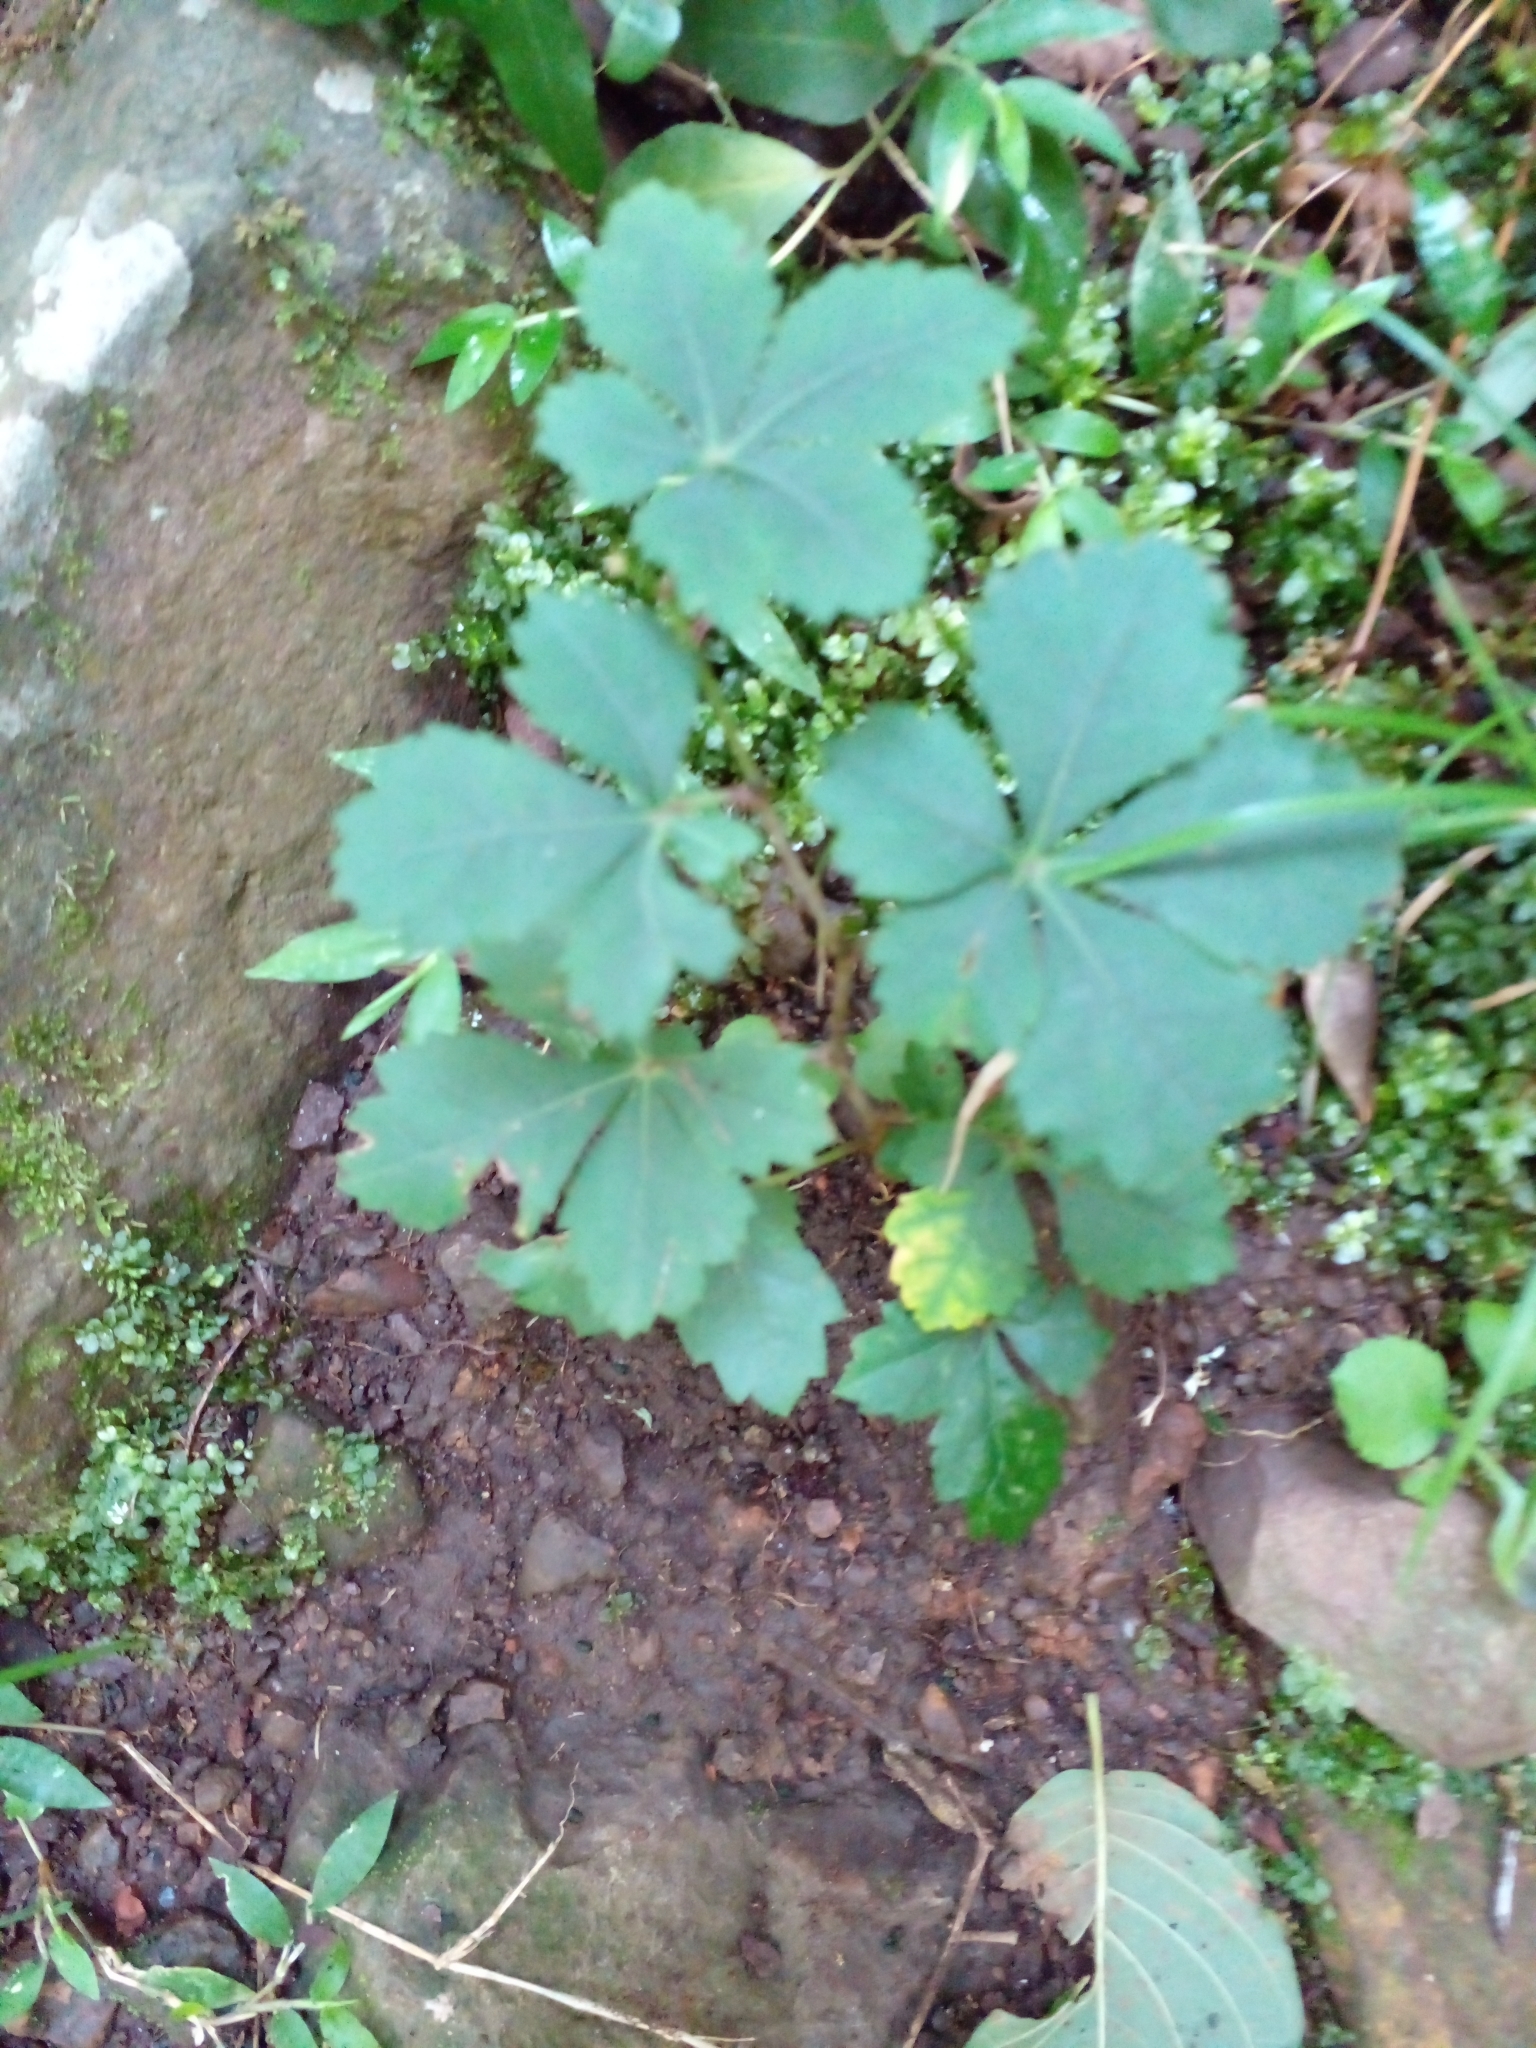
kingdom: Plantae
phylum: Tracheophyta
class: Magnoliopsida
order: Vitales
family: Vitaceae
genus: Clematicissus
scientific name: Clematicissus striata
